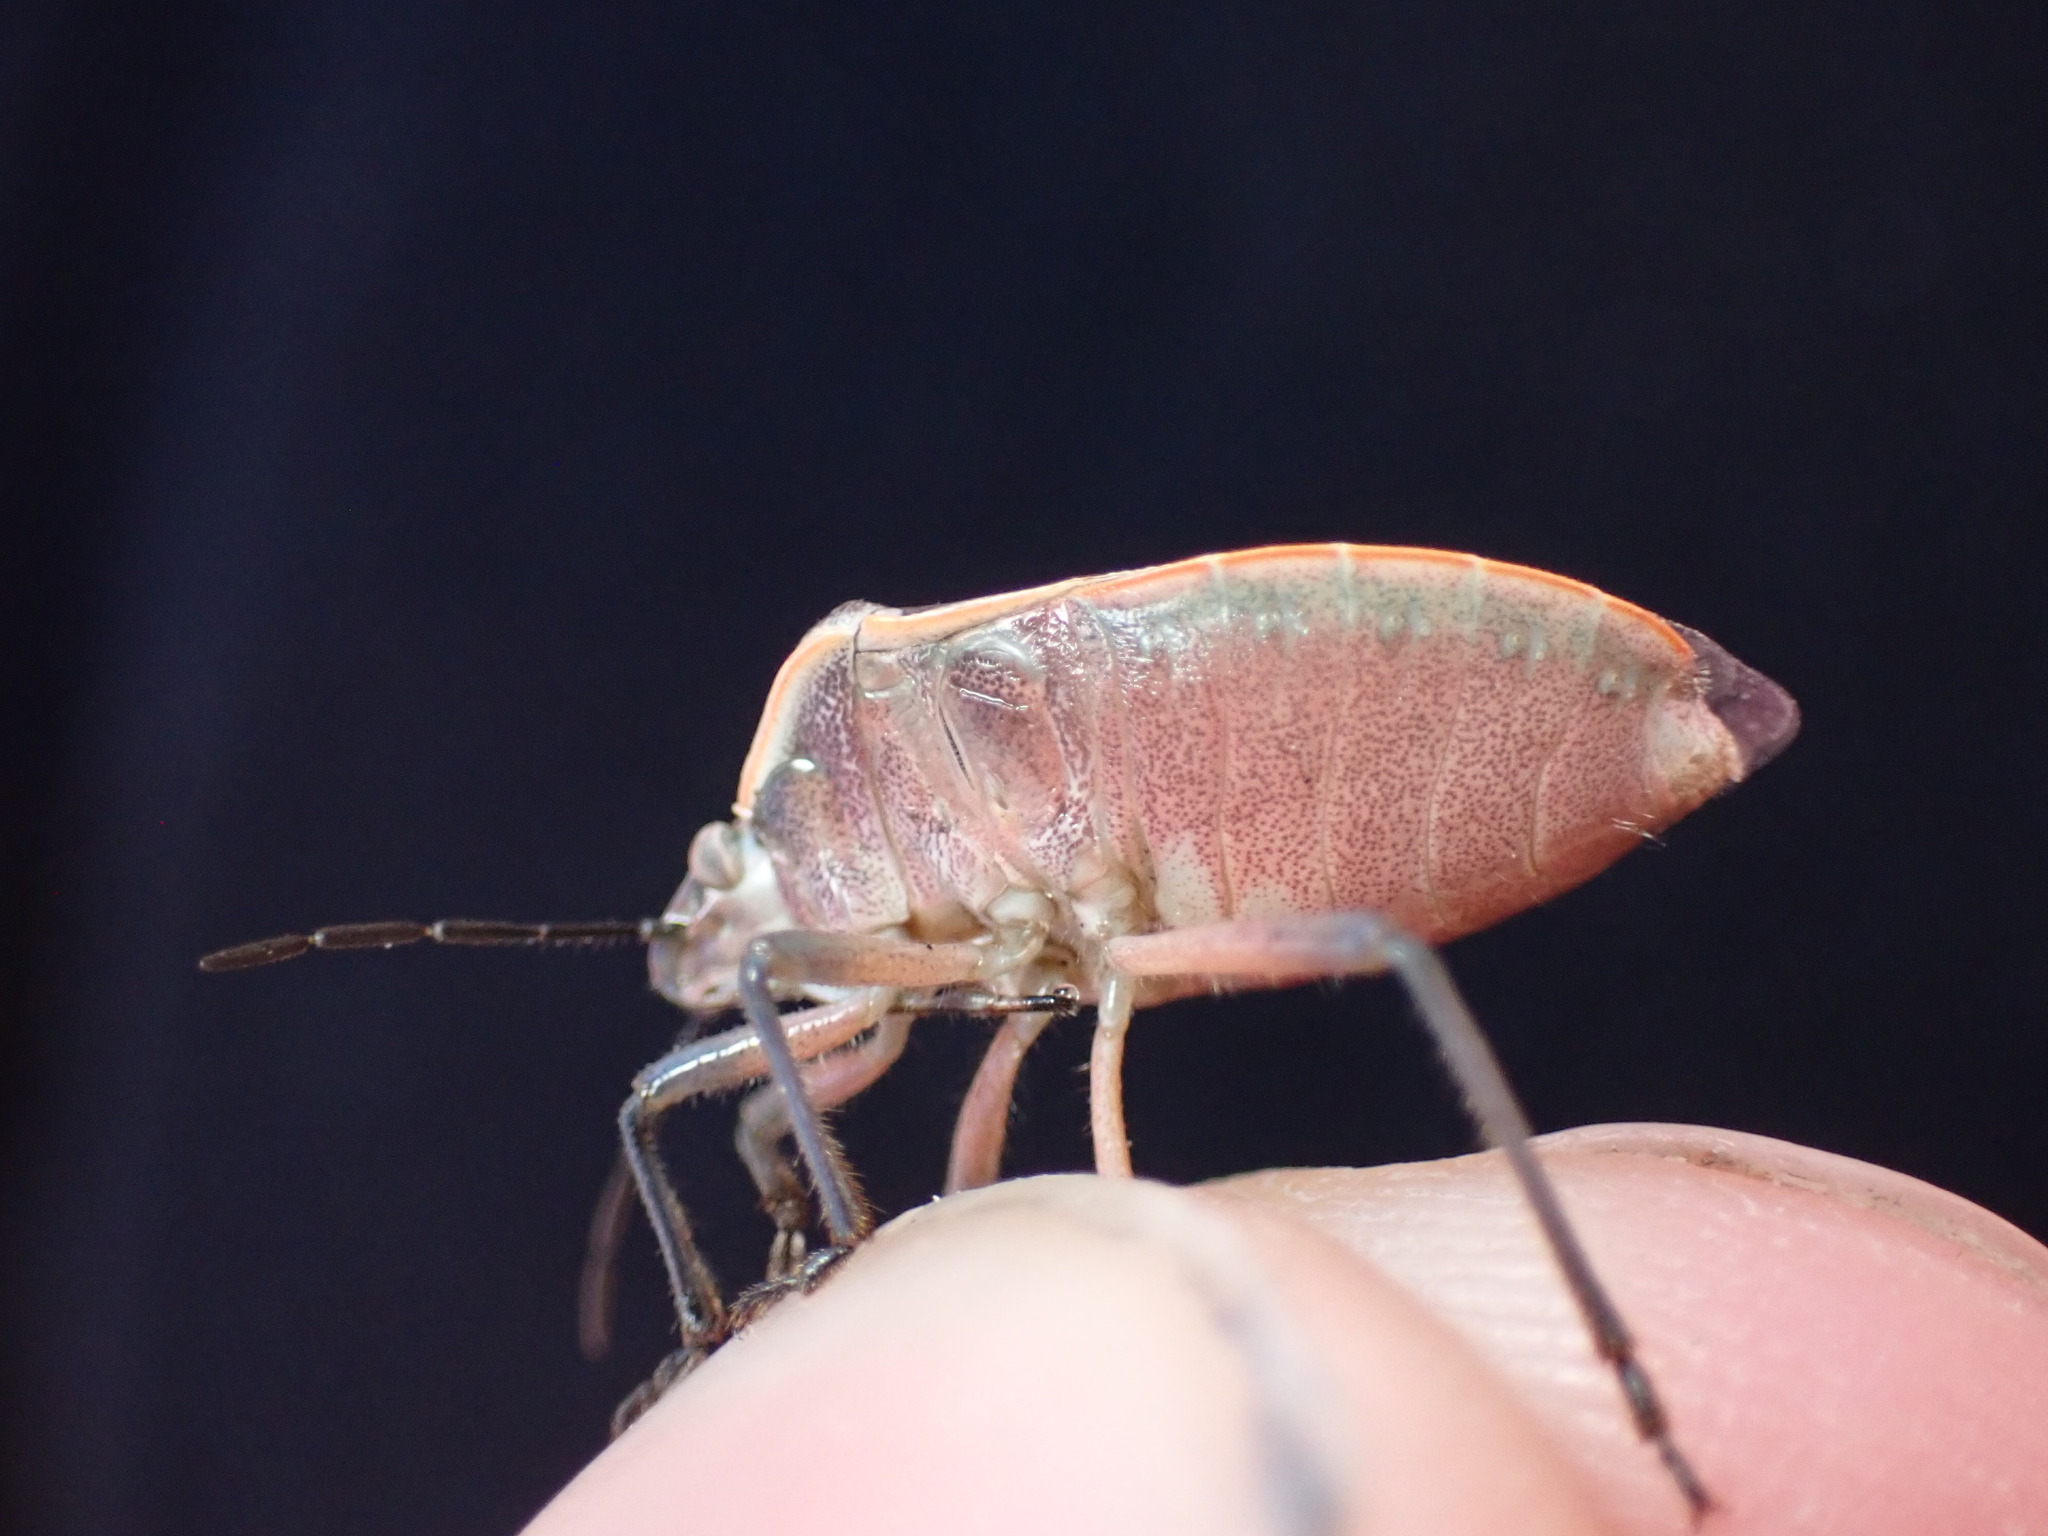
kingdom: Animalia
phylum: Arthropoda
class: Insecta
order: Hemiptera
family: Pentatomidae
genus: Chlorochroa
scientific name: Chlorochroa sayi
